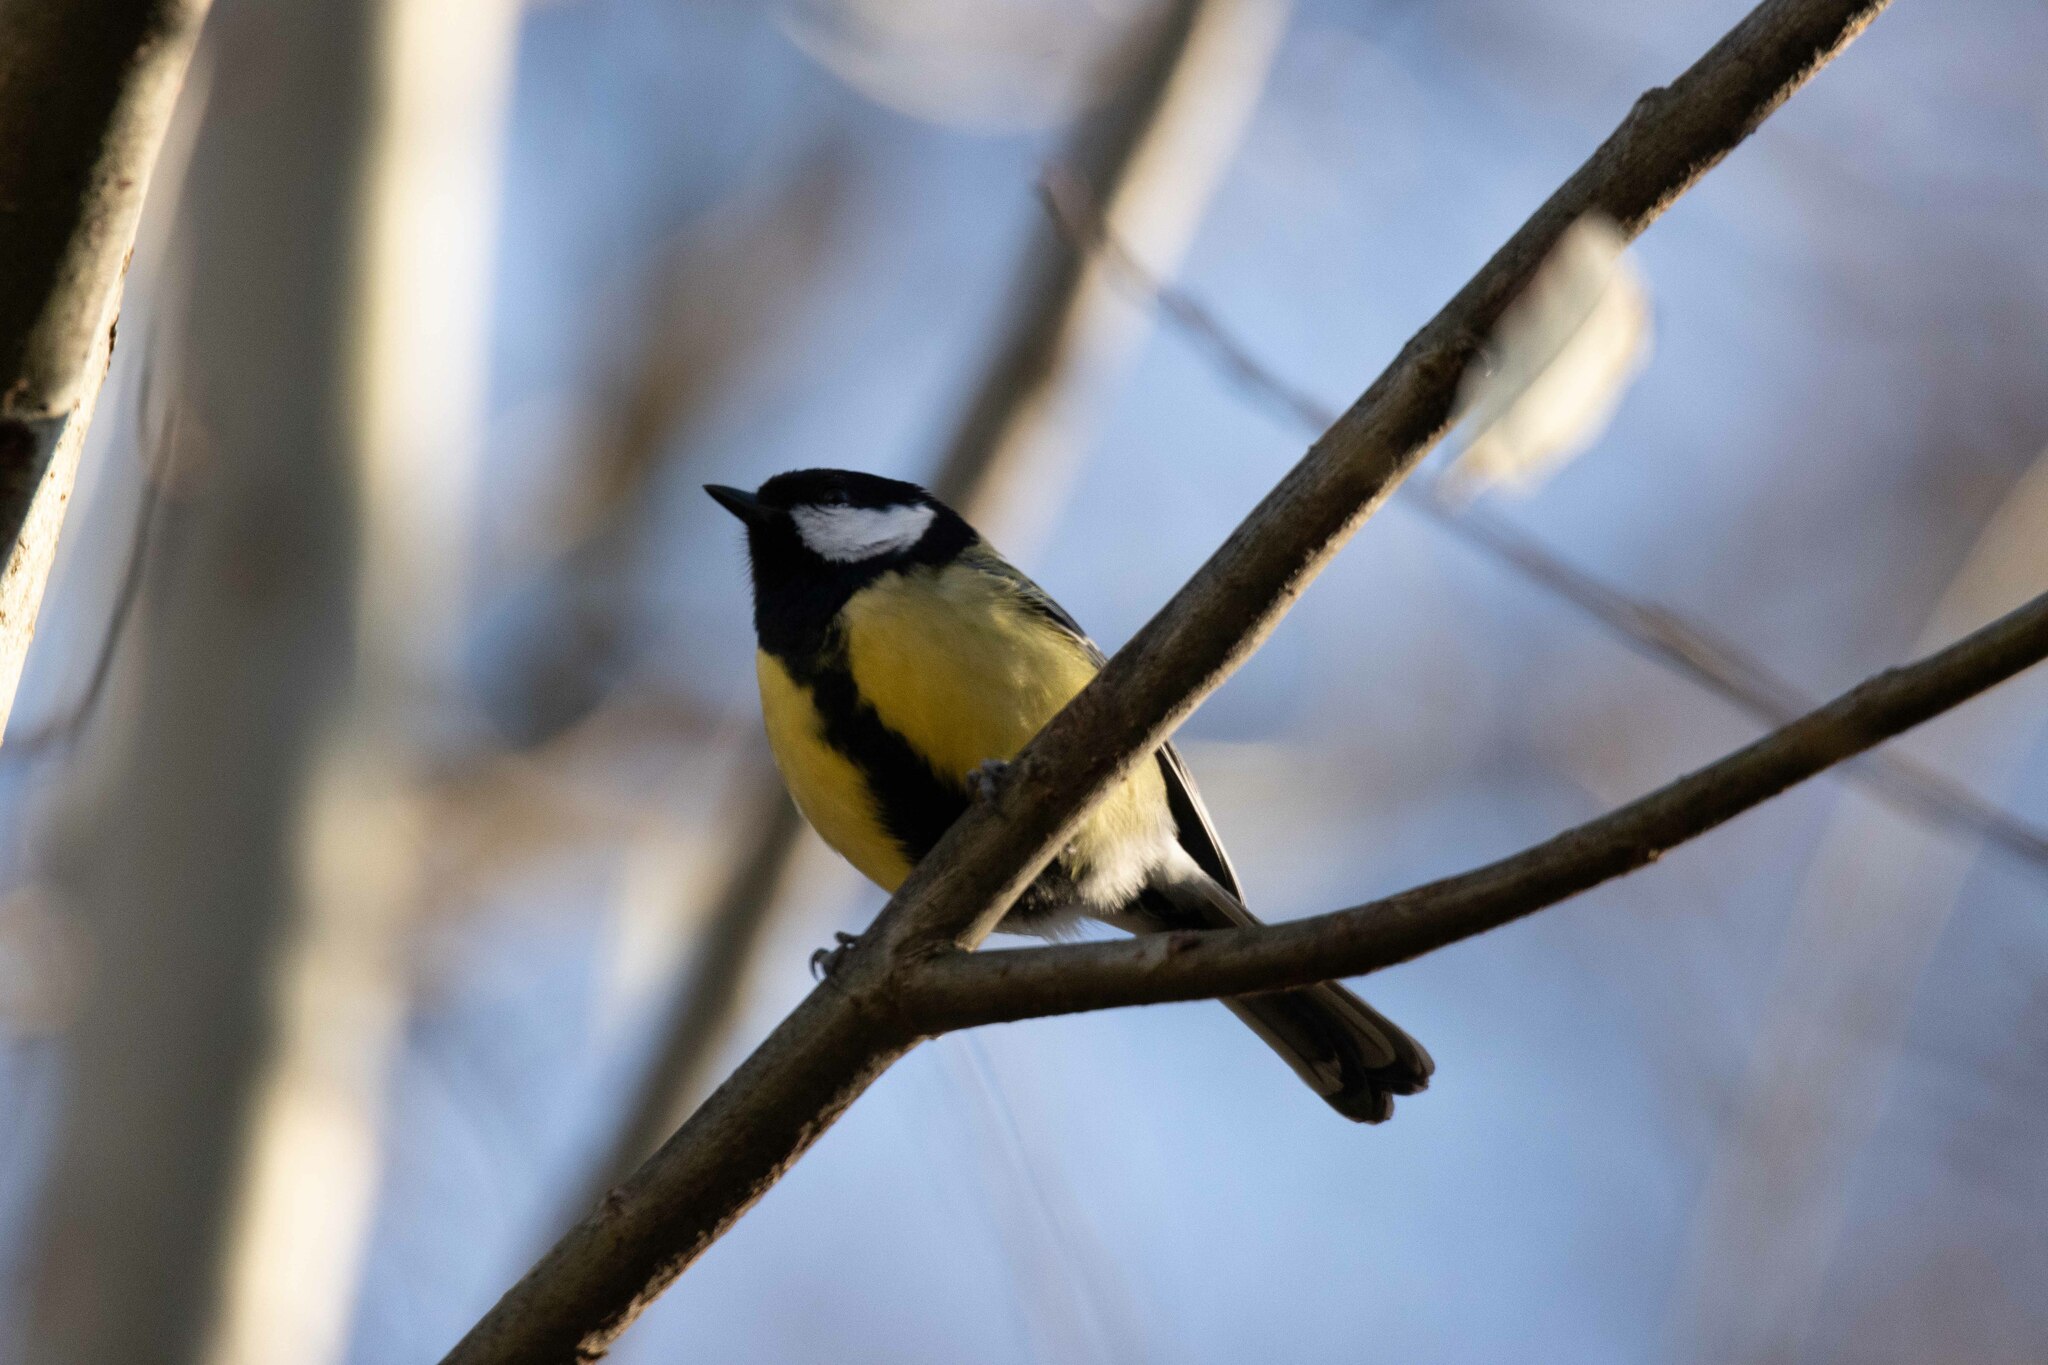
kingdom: Animalia
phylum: Chordata
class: Aves
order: Passeriformes
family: Paridae
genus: Parus
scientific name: Parus major
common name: Great tit
